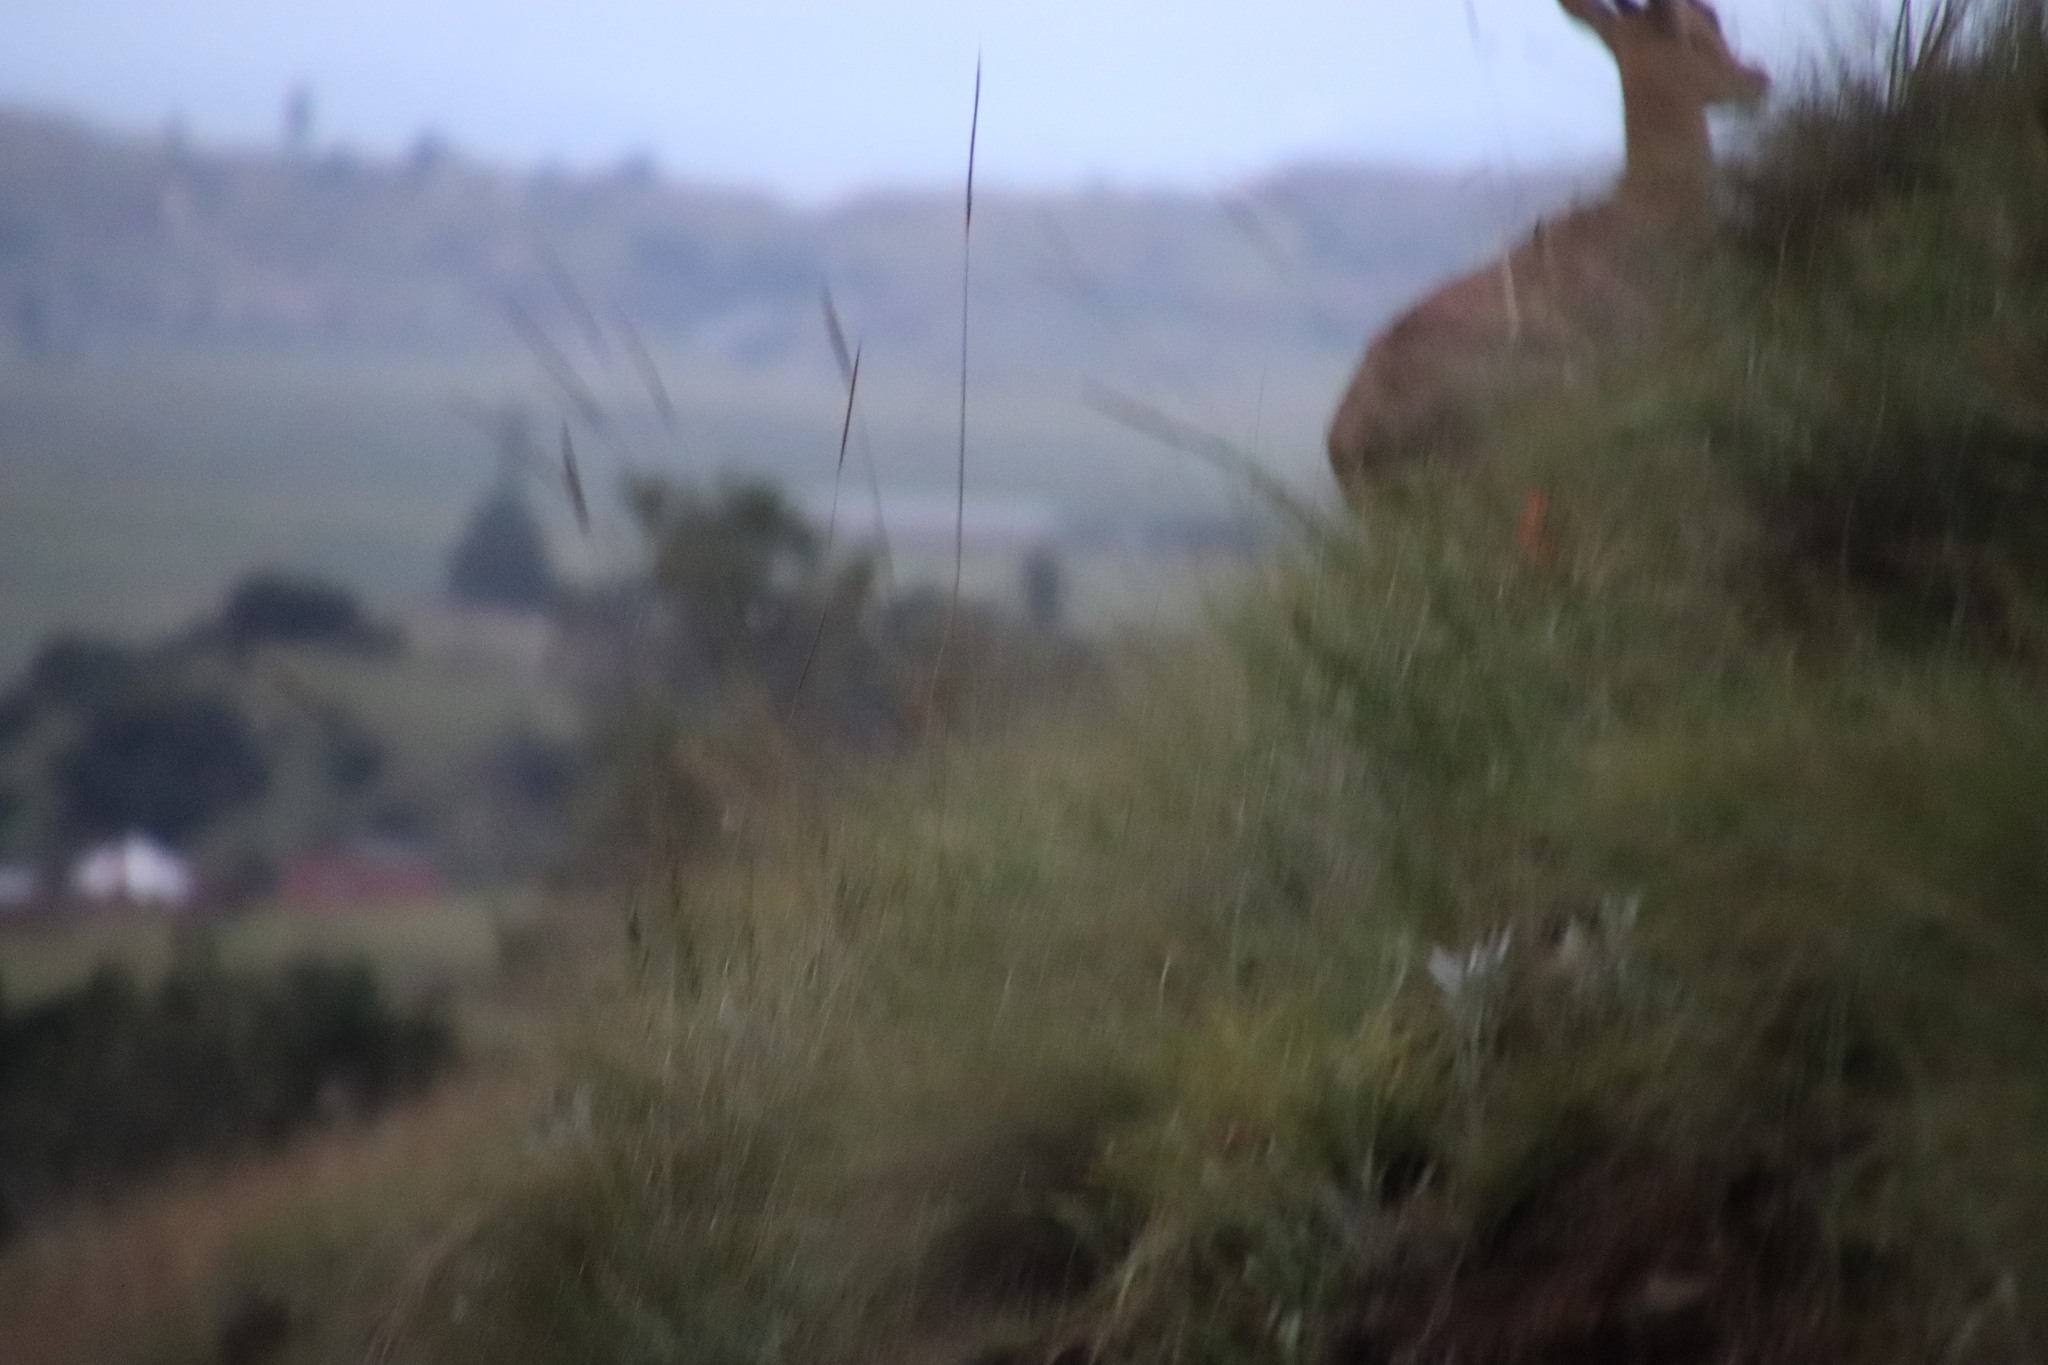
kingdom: Animalia
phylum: Chordata
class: Mammalia
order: Artiodactyla
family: Bovidae
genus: Redunca
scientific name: Redunca fulvorufula
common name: Mountain reedbuck
